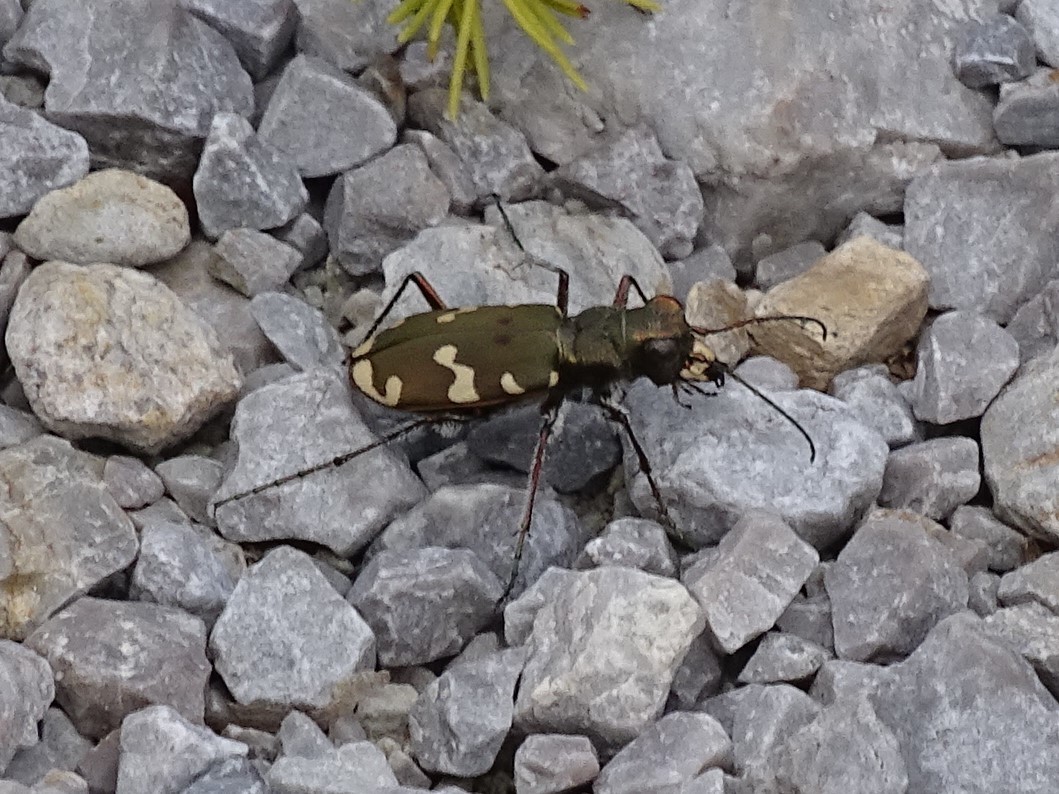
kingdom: Animalia
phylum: Arthropoda
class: Insecta
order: Coleoptera
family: Carabidae
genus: Cicindela
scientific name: Cicindela sylvicola
